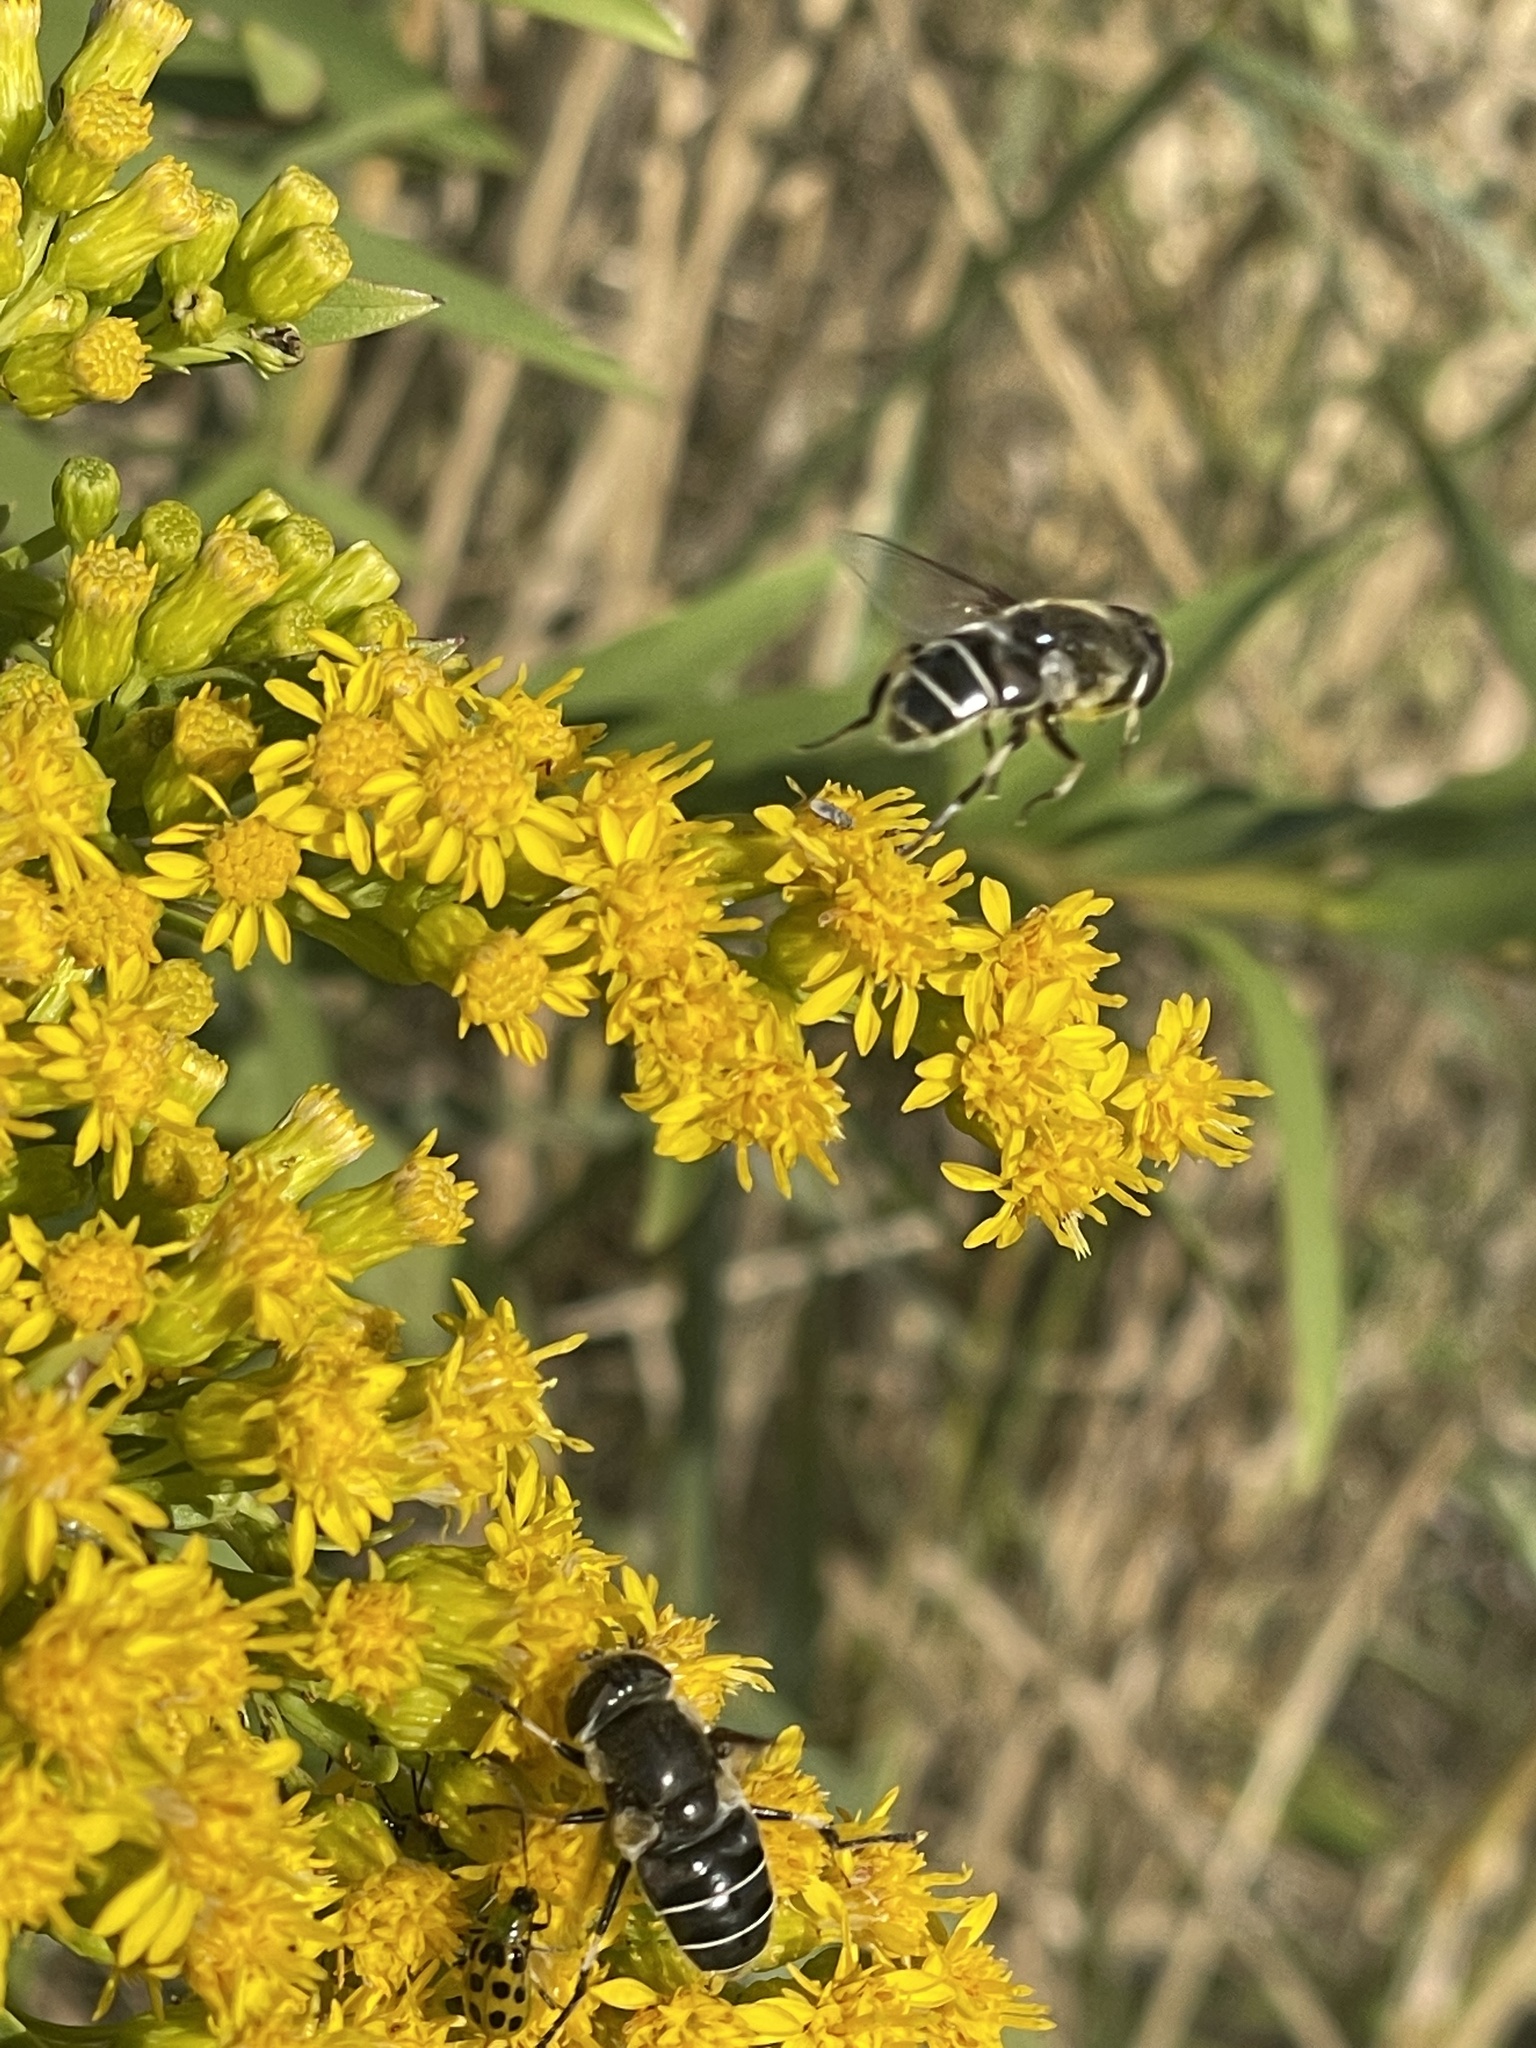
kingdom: Animalia
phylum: Arthropoda
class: Insecta
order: Diptera
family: Syrphidae
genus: Eristalis
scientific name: Eristalis dimidiata
